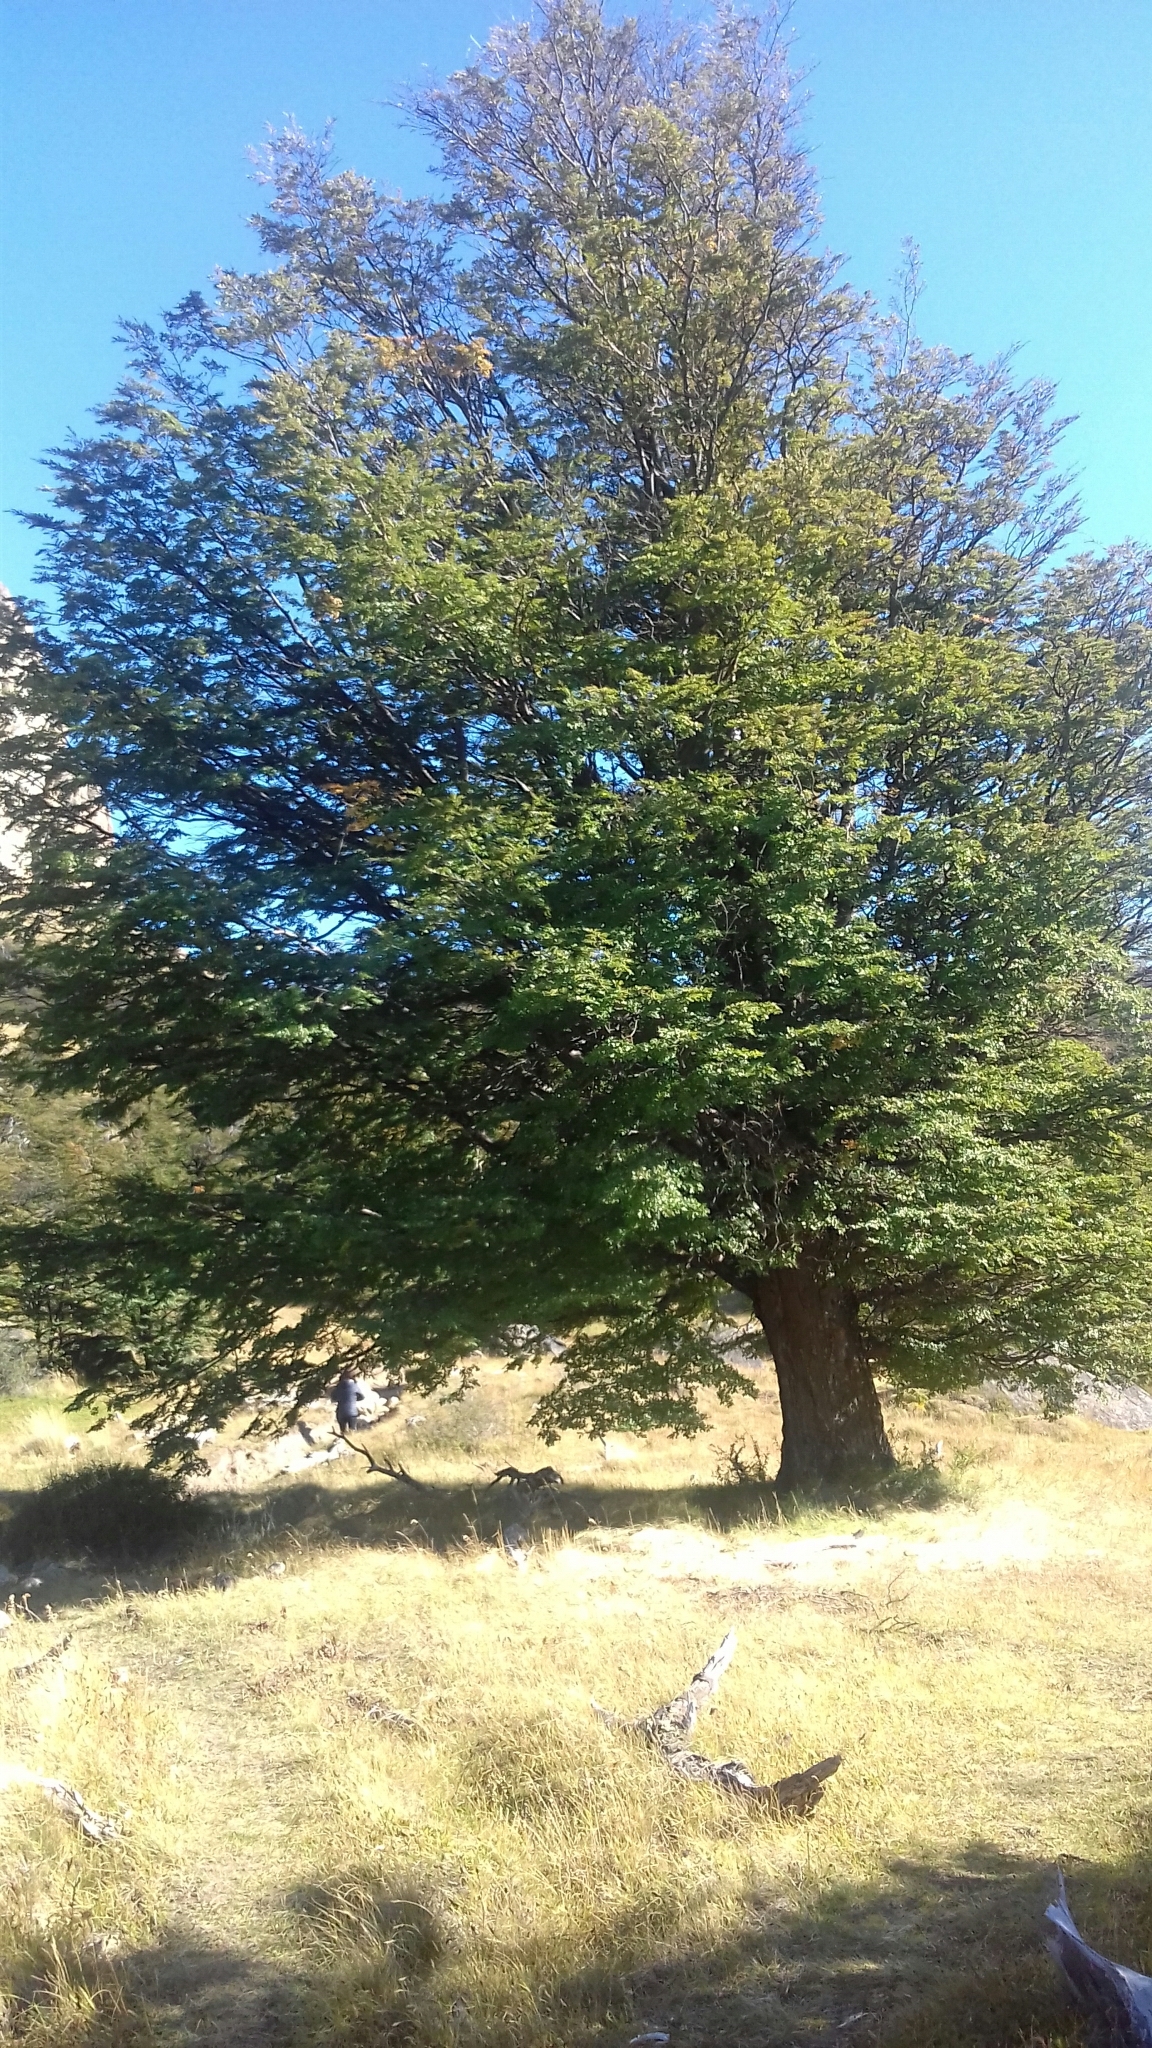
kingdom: Plantae
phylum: Tracheophyta
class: Magnoliopsida
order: Fagales
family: Nothofagaceae
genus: Nothofagus
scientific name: Nothofagus pumilio
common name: Lenga beech
